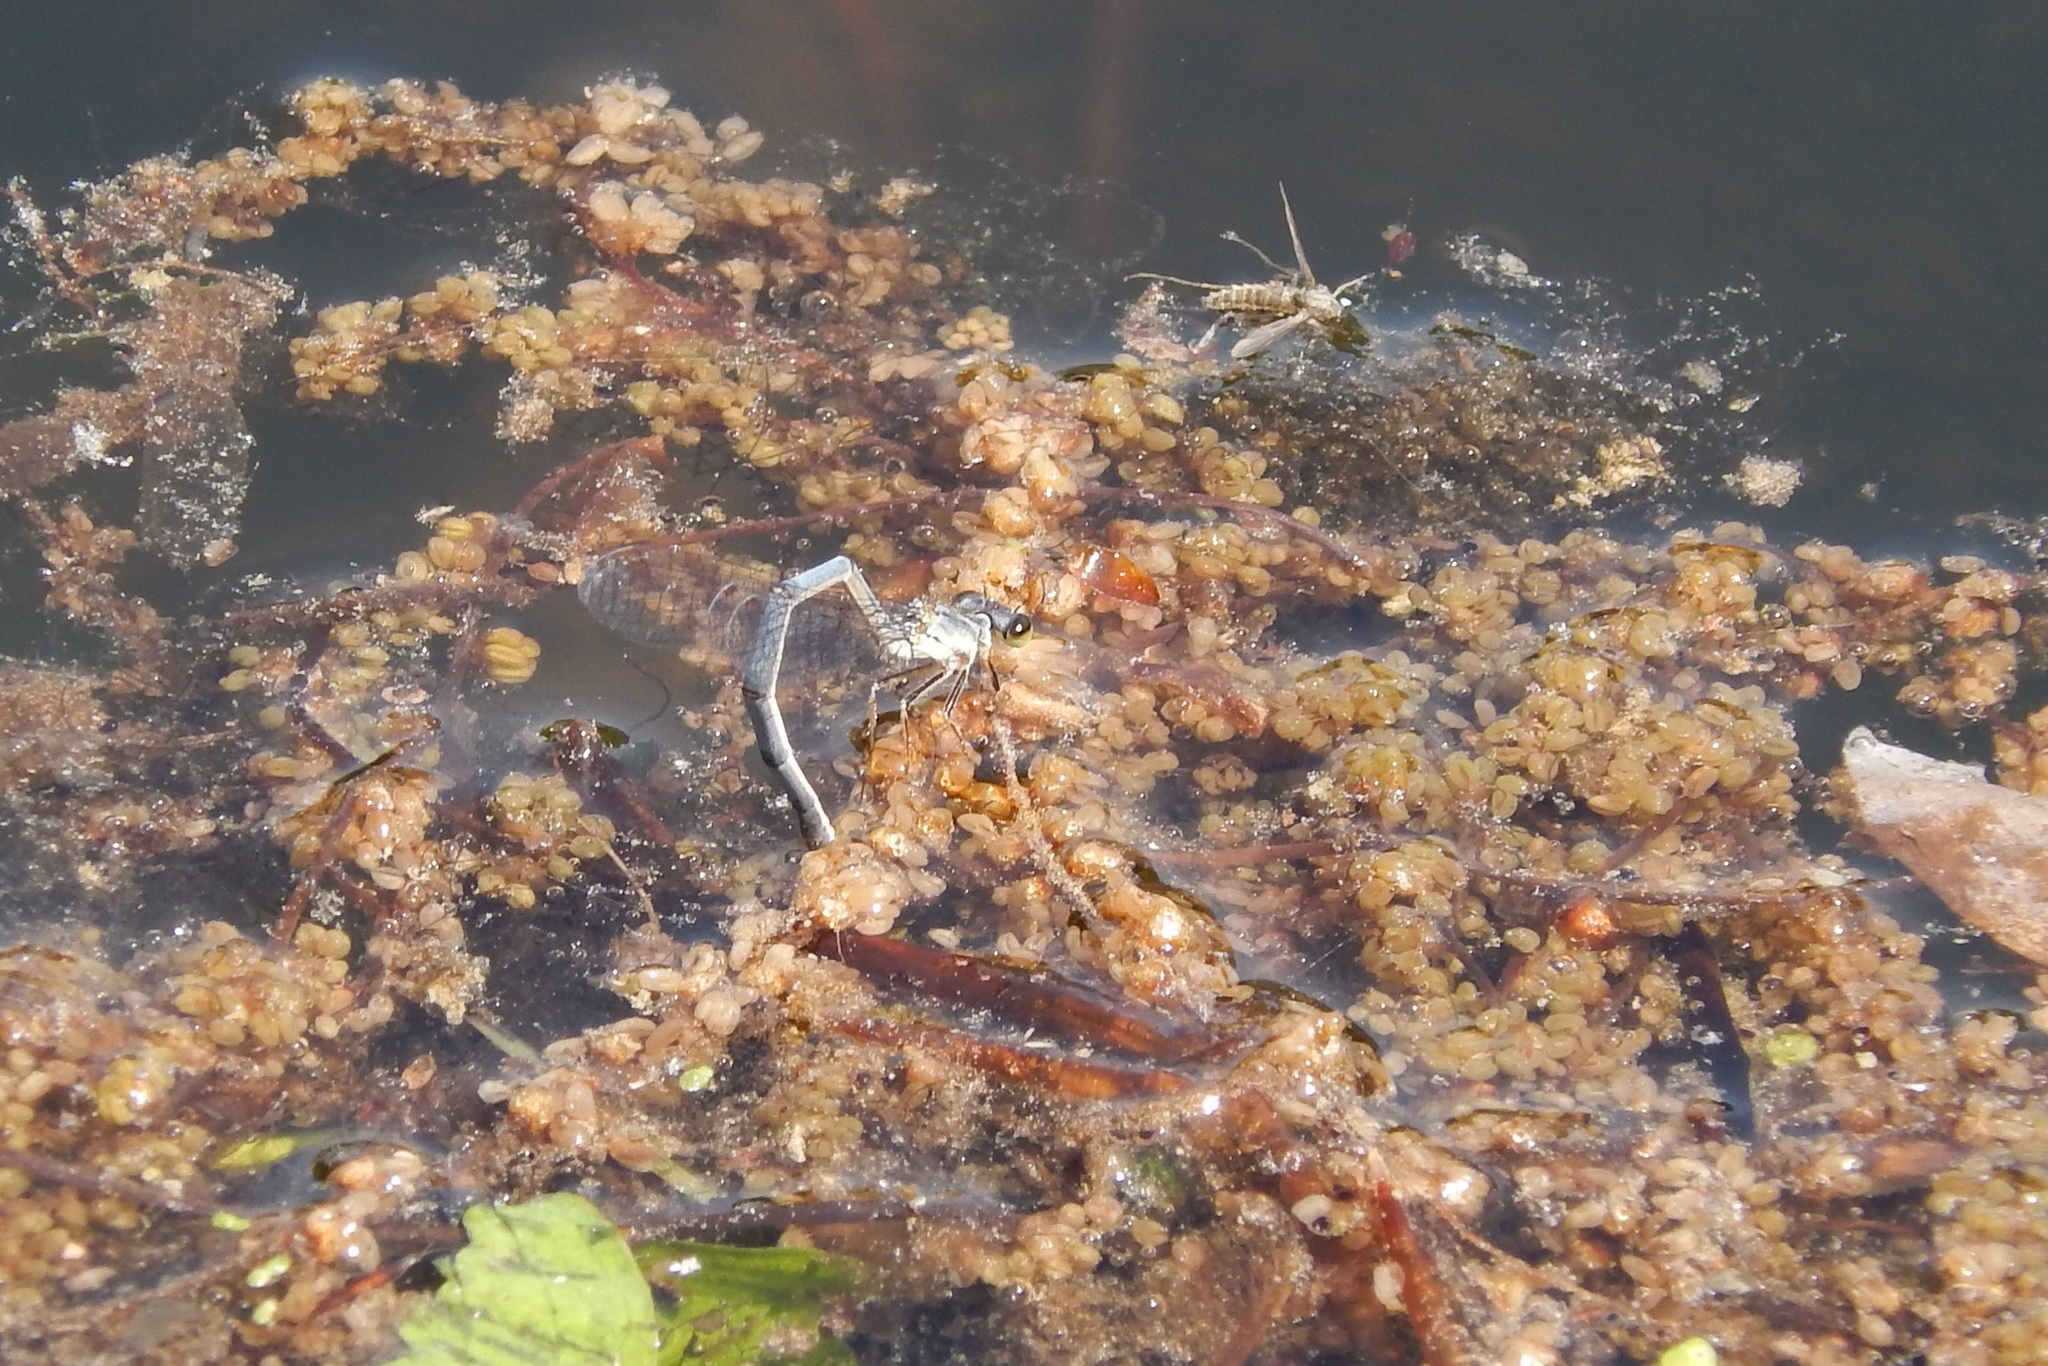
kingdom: Animalia
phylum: Arthropoda
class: Insecta
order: Odonata
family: Coenagrionidae
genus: Ischnura
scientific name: Ischnura posita
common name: Fragile forktail
